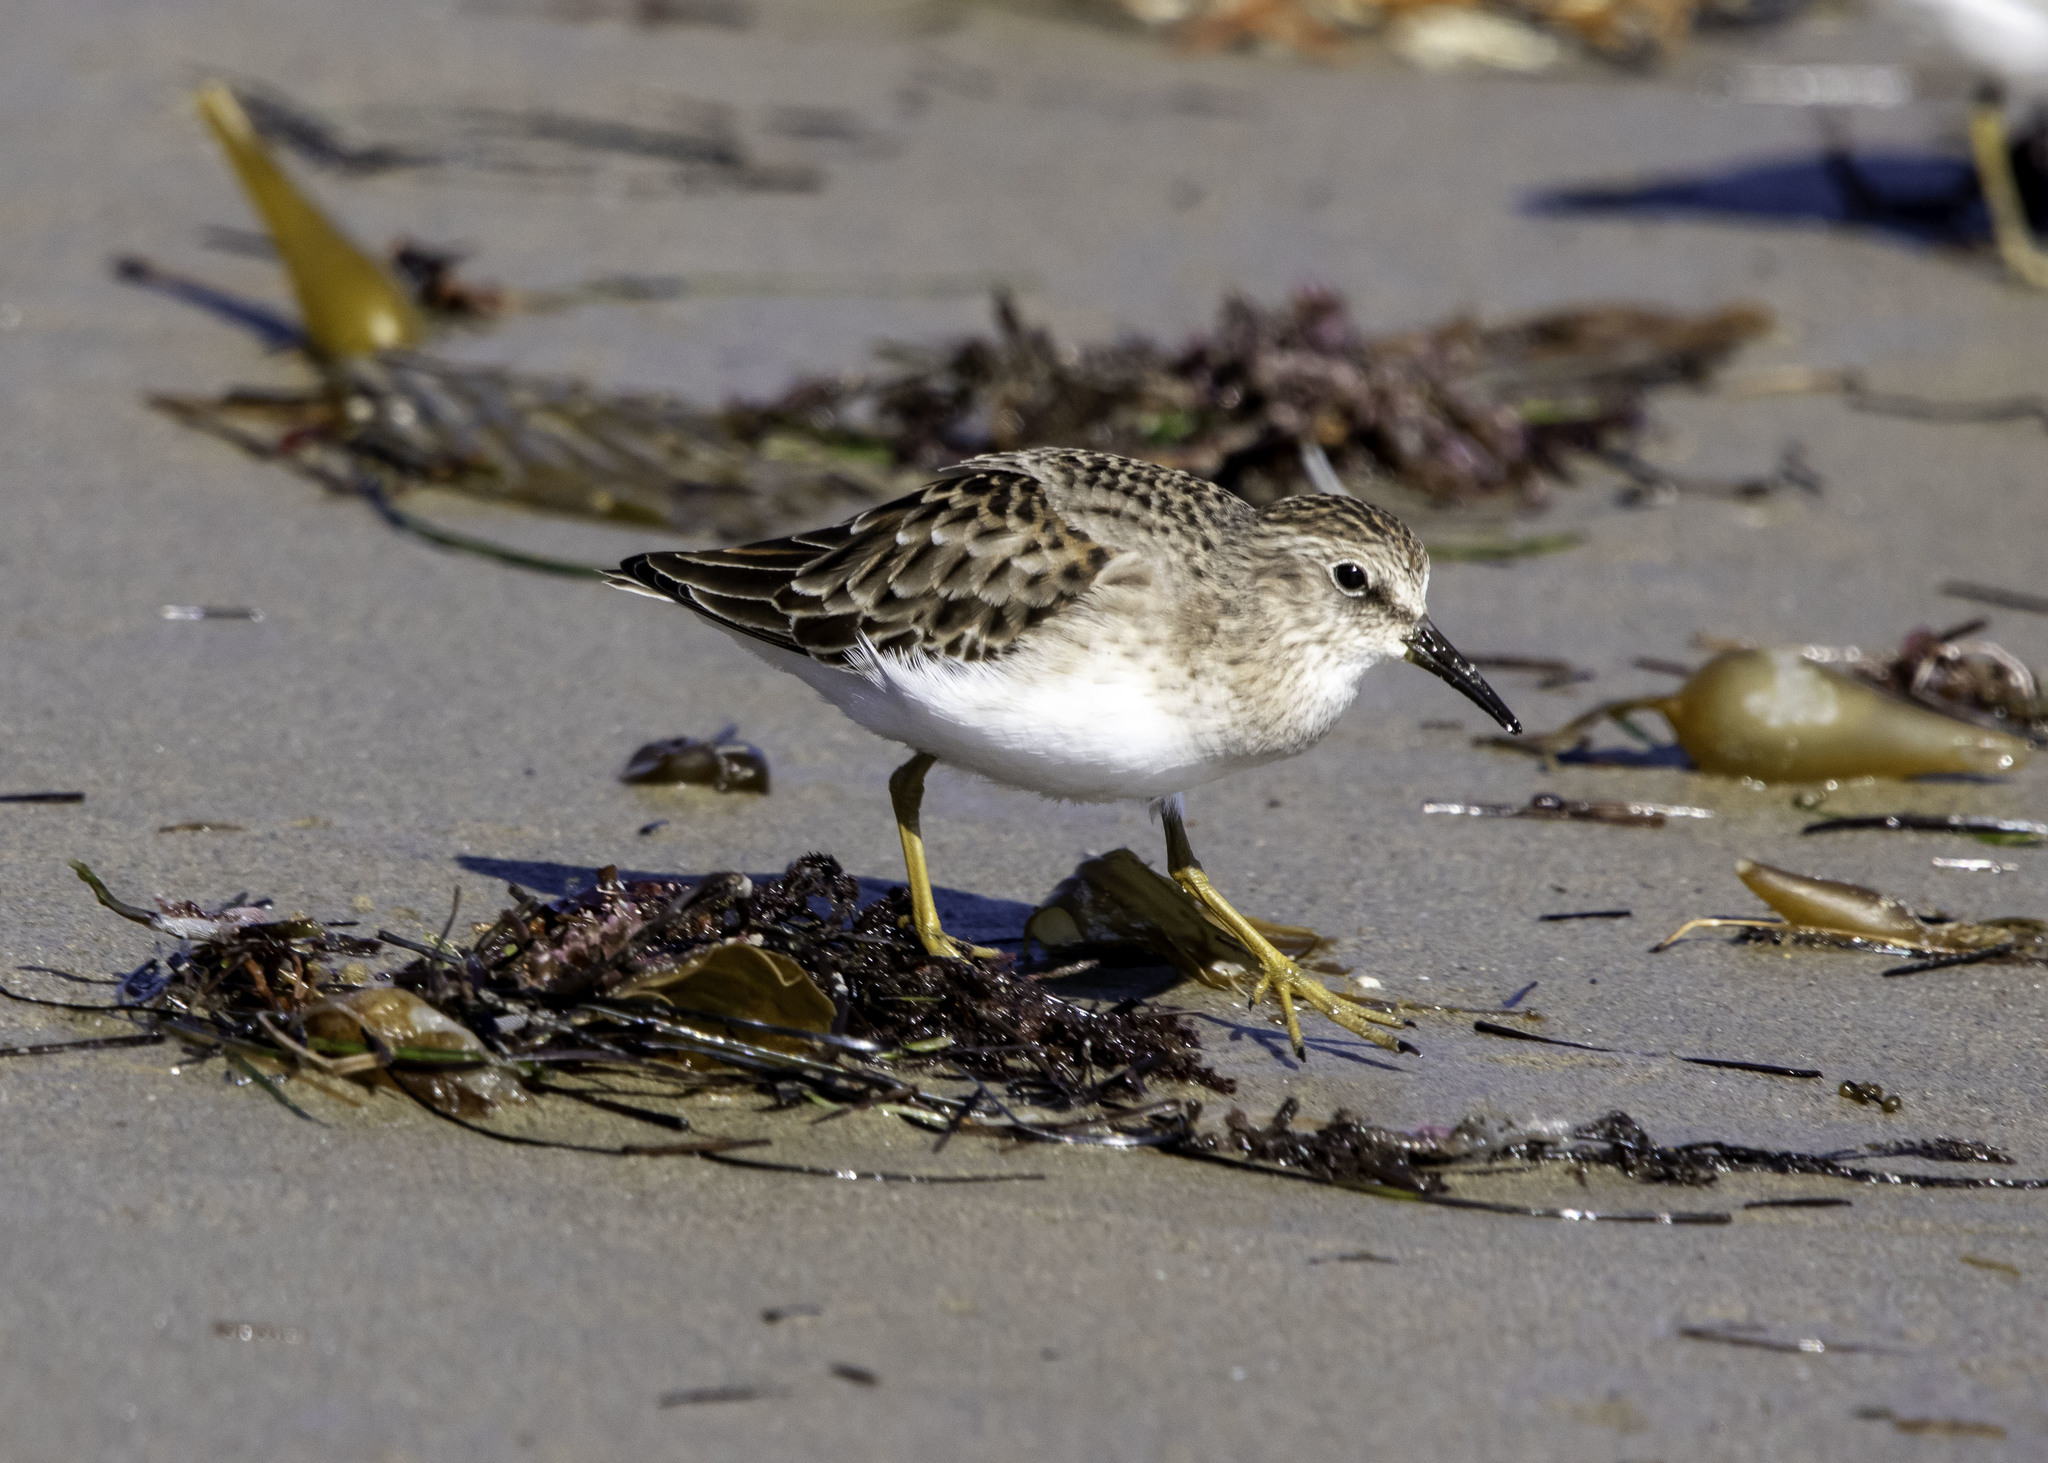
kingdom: Animalia
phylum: Chordata
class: Aves
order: Charadriiformes
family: Scolopacidae
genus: Calidris
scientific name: Calidris minutilla
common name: Least sandpiper
